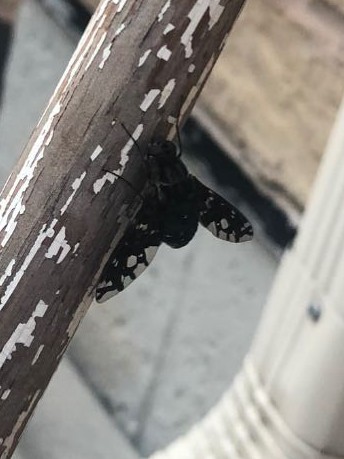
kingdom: Animalia
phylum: Arthropoda
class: Insecta
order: Diptera
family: Bombyliidae
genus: Xenox
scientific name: Xenox tigrinus
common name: Tiger bee fly
